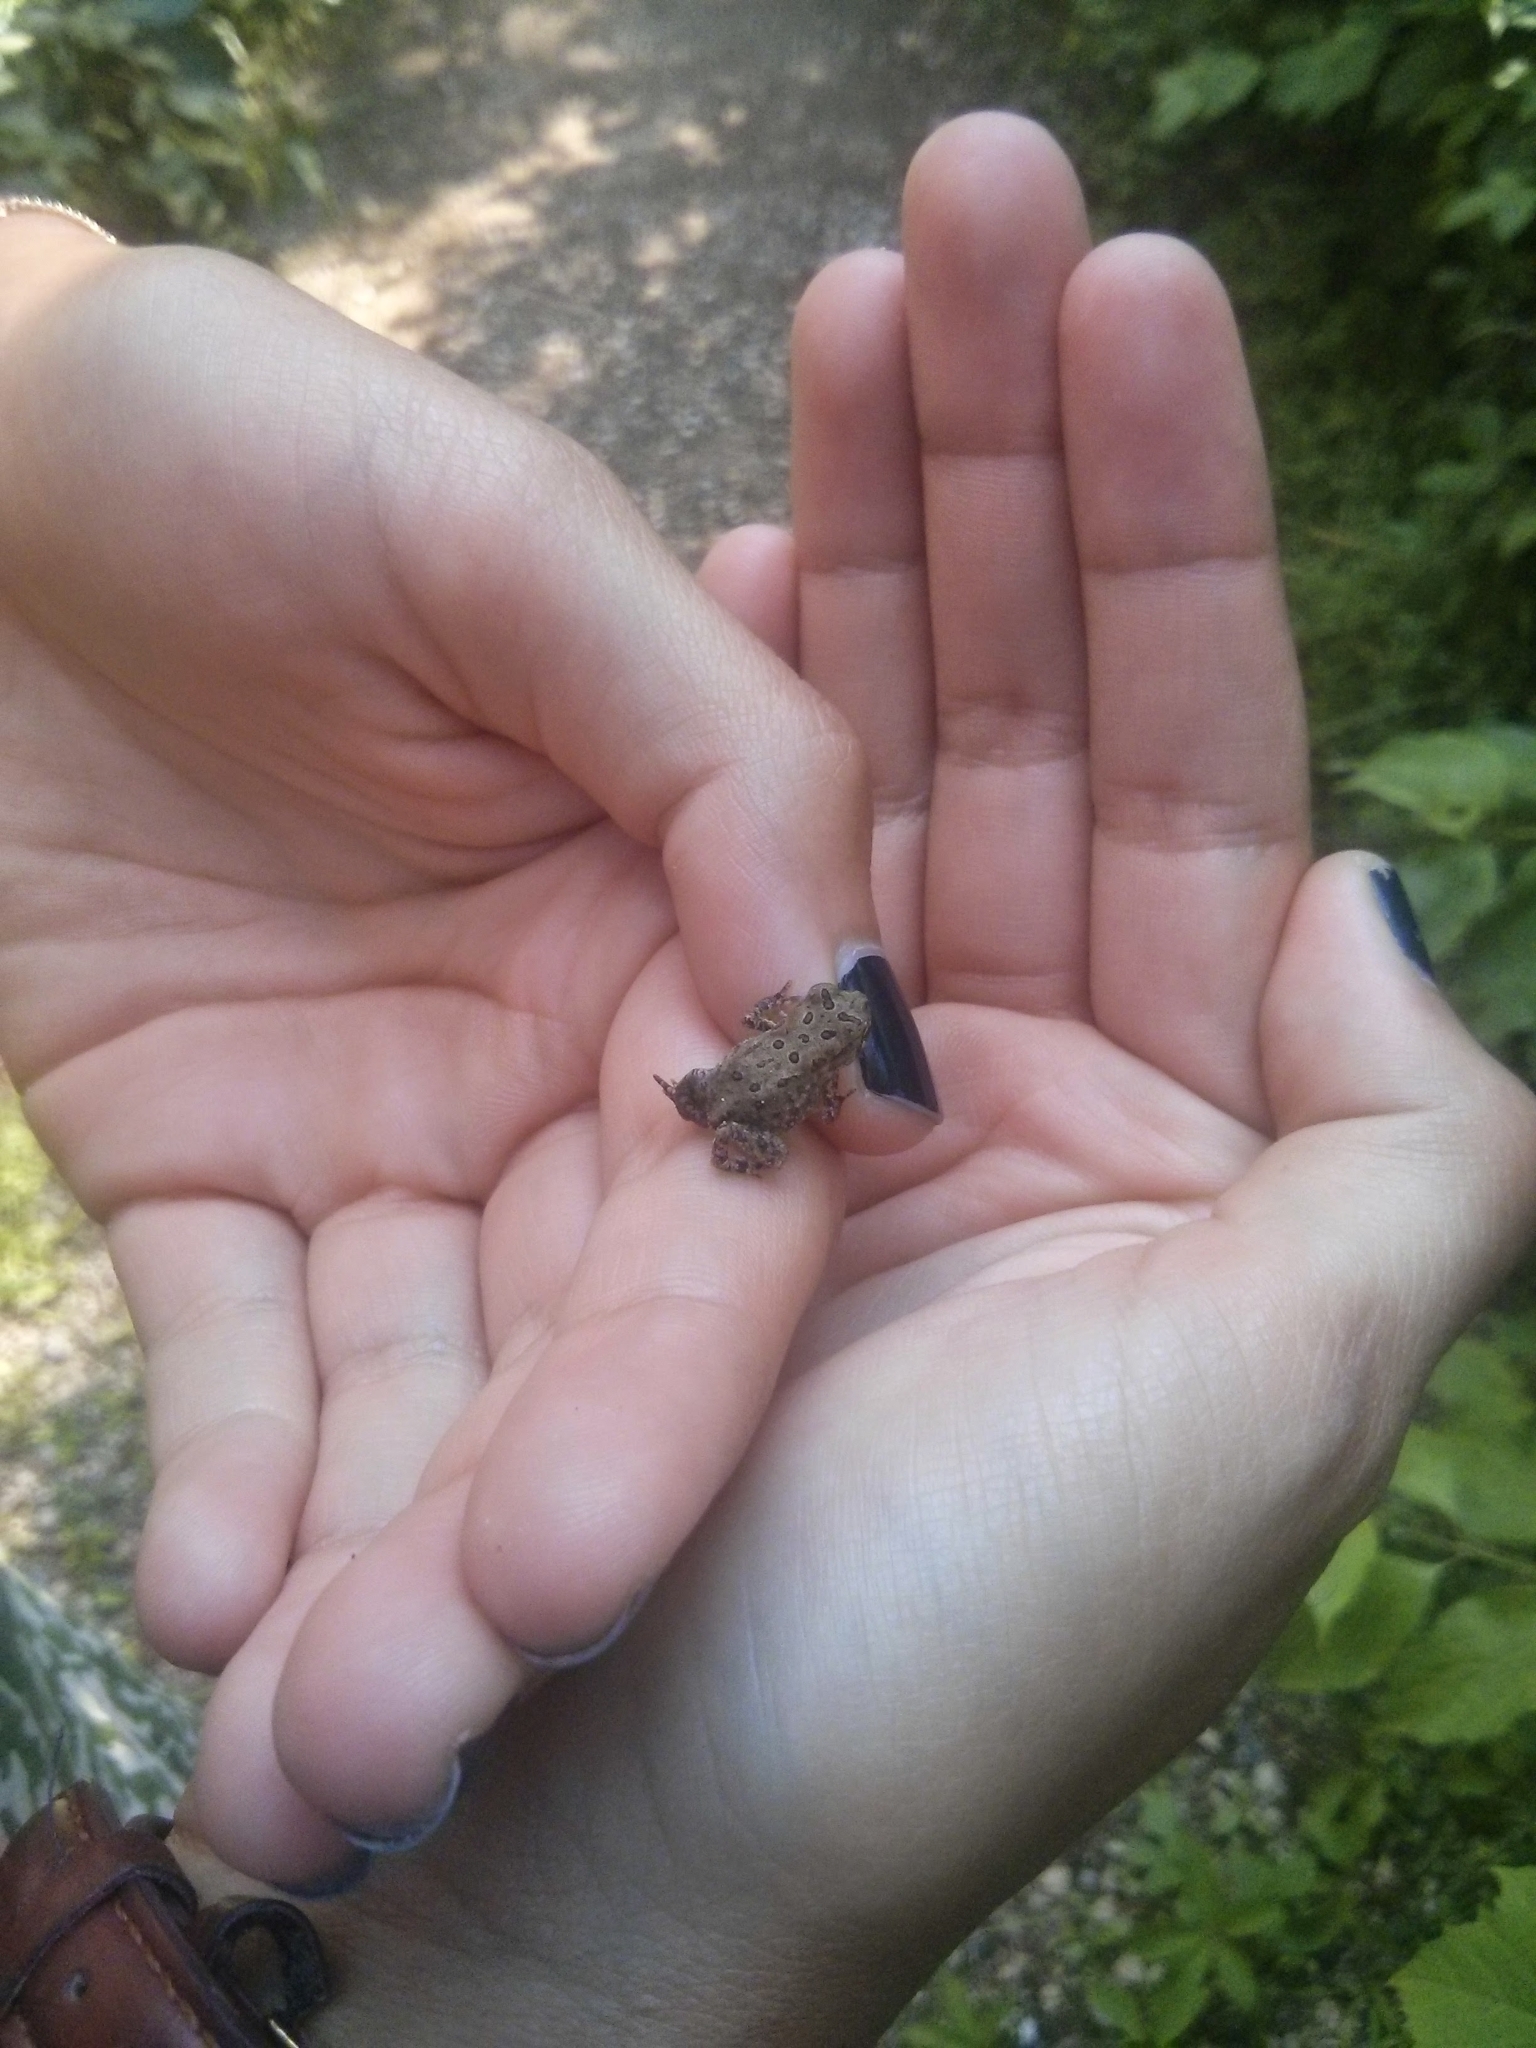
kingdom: Animalia
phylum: Chordata
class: Amphibia
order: Anura
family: Bufonidae
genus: Anaxyrus
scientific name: Anaxyrus americanus
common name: American toad
